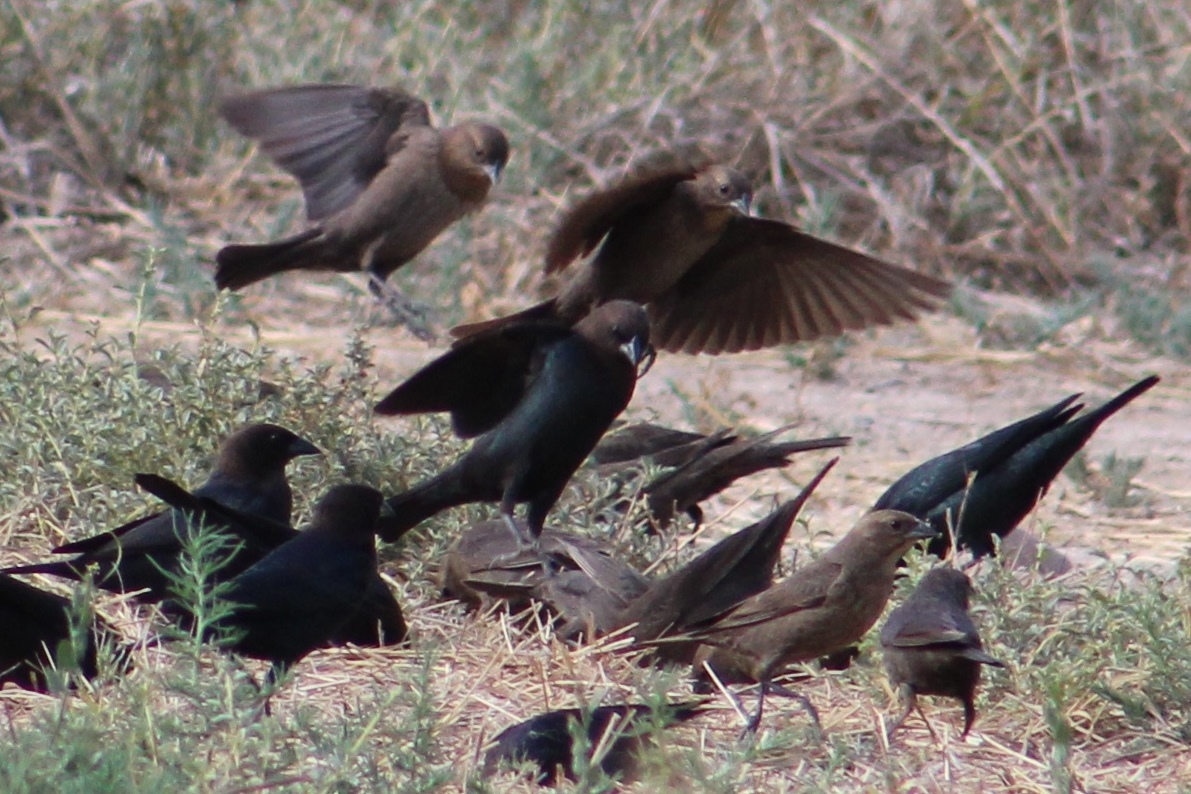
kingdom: Animalia
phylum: Chordata
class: Aves
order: Passeriformes
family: Icteridae
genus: Molothrus
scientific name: Molothrus ater
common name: Brown-headed cowbird
